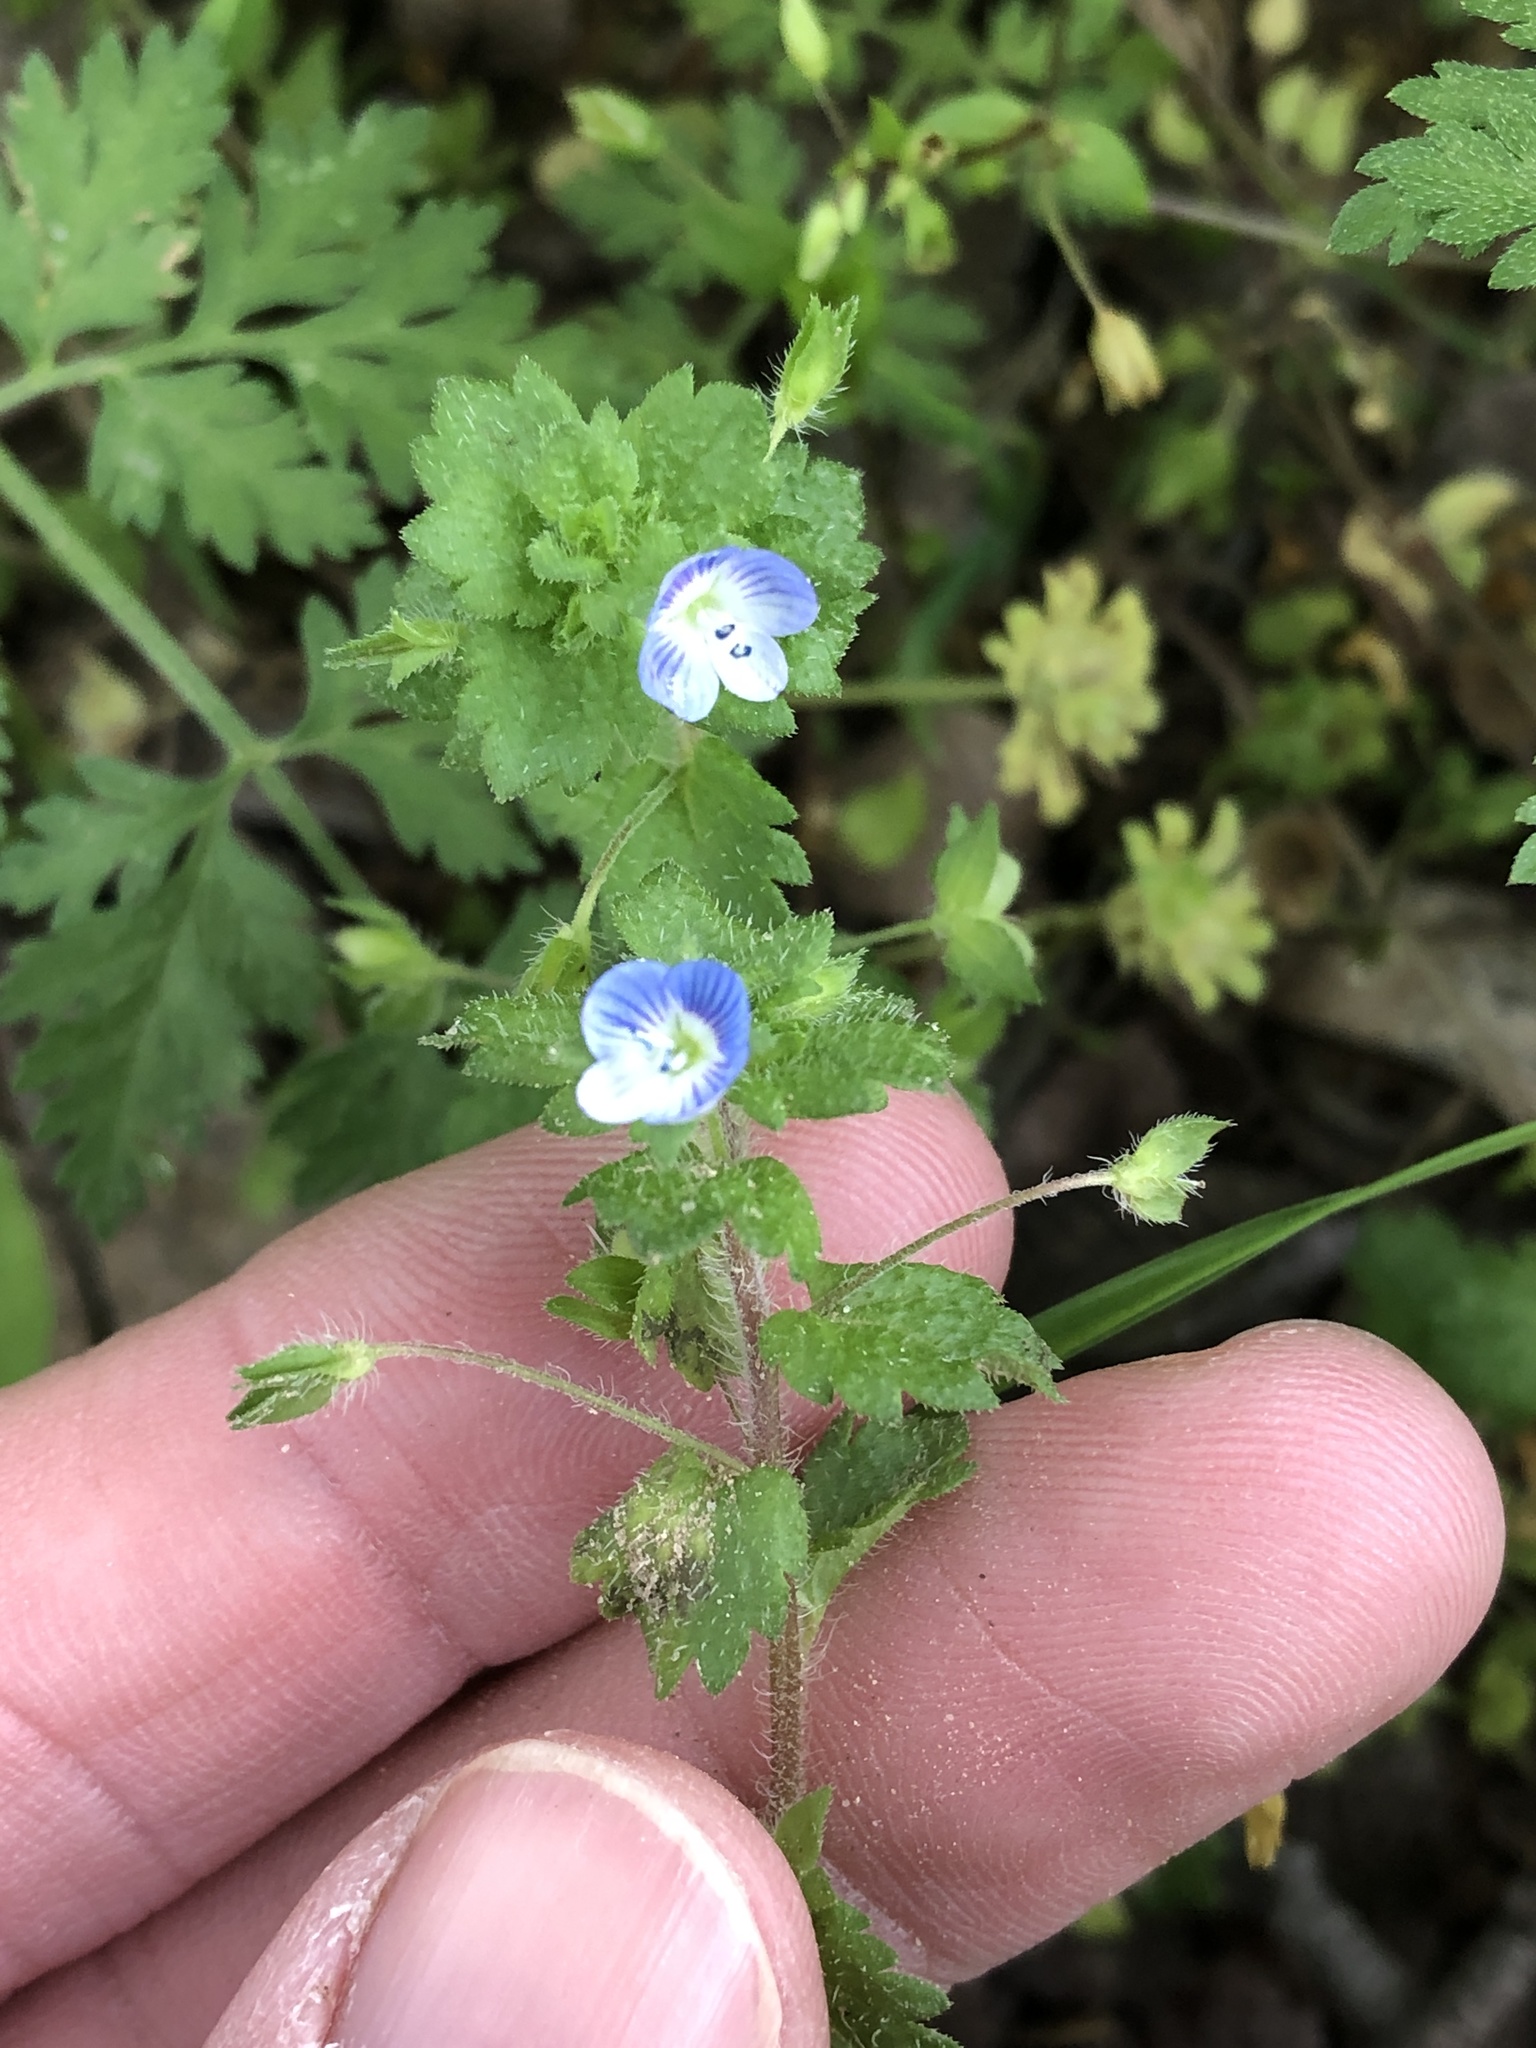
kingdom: Plantae
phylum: Tracheophyta
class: Magnoliopsida
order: Lamiales
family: Plantaginaceae
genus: Veronica
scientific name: Veronica persica
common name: Common field-speedwell
